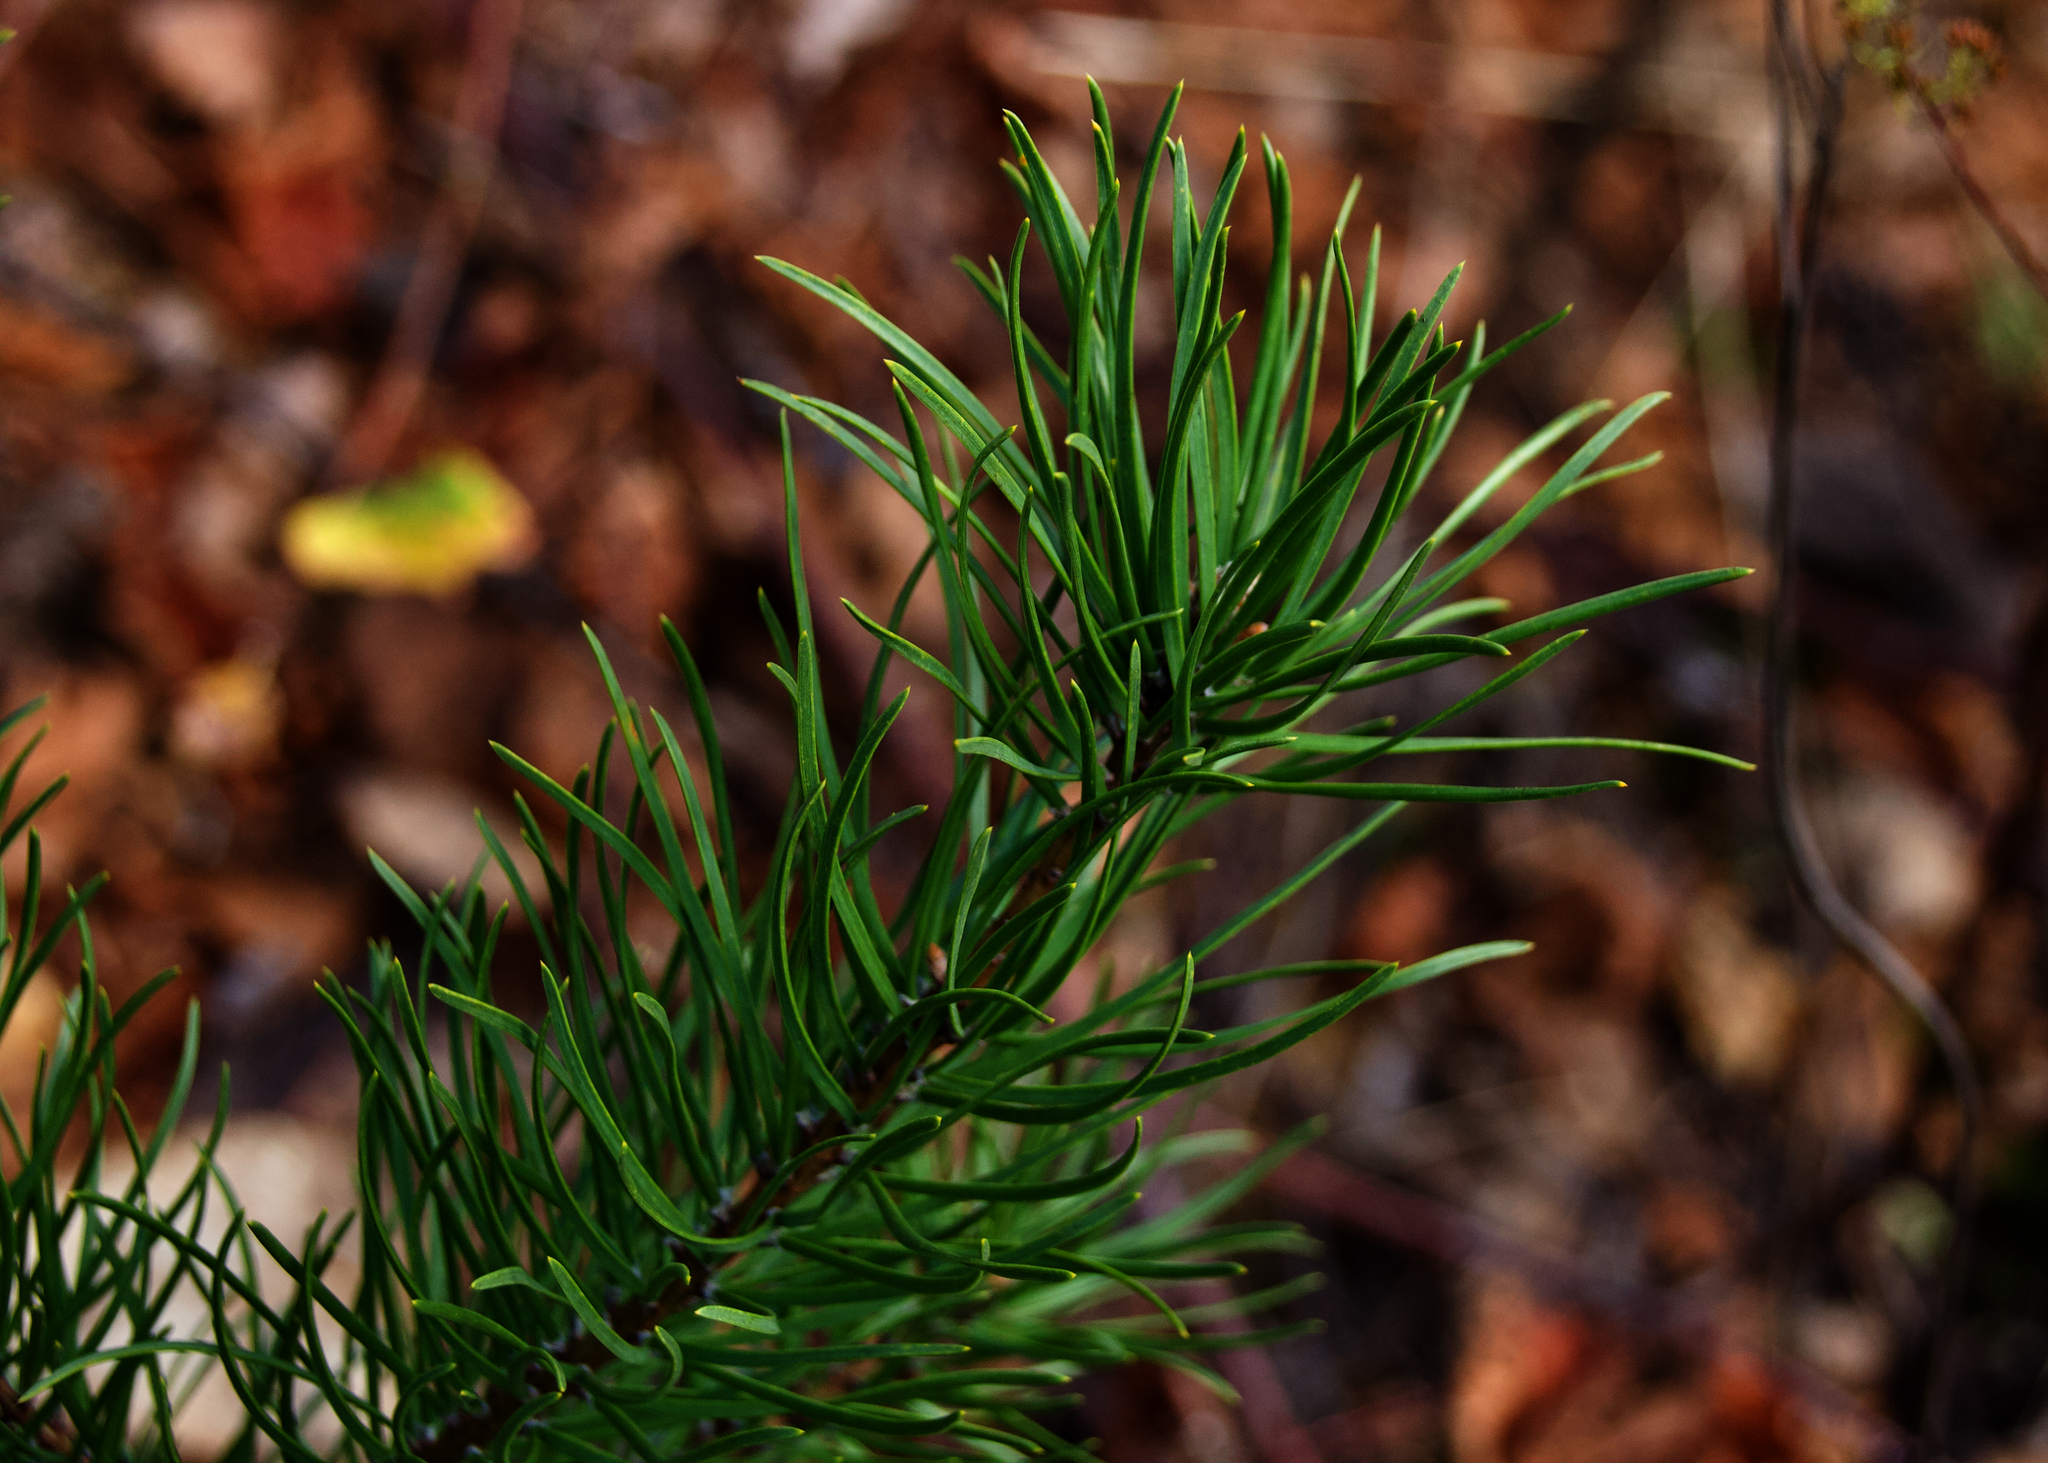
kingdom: Plantae
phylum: Tracheophyta
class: Pinopsida
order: Pinales
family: Pinaceae
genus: Pinus
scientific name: Pinus banksiana
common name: Jack pine
